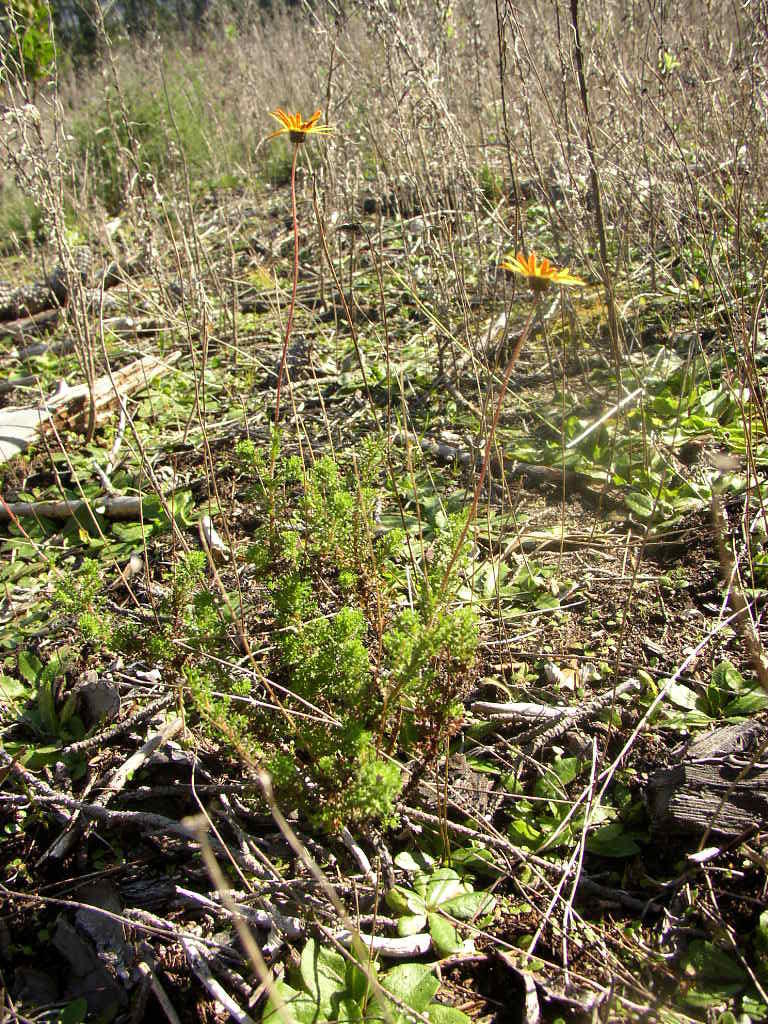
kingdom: Plantae
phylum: Tracheophyta
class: Magnoliopsida
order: Asterales
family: Asteraceae
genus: Ursinia
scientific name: Ursinia paleacea
